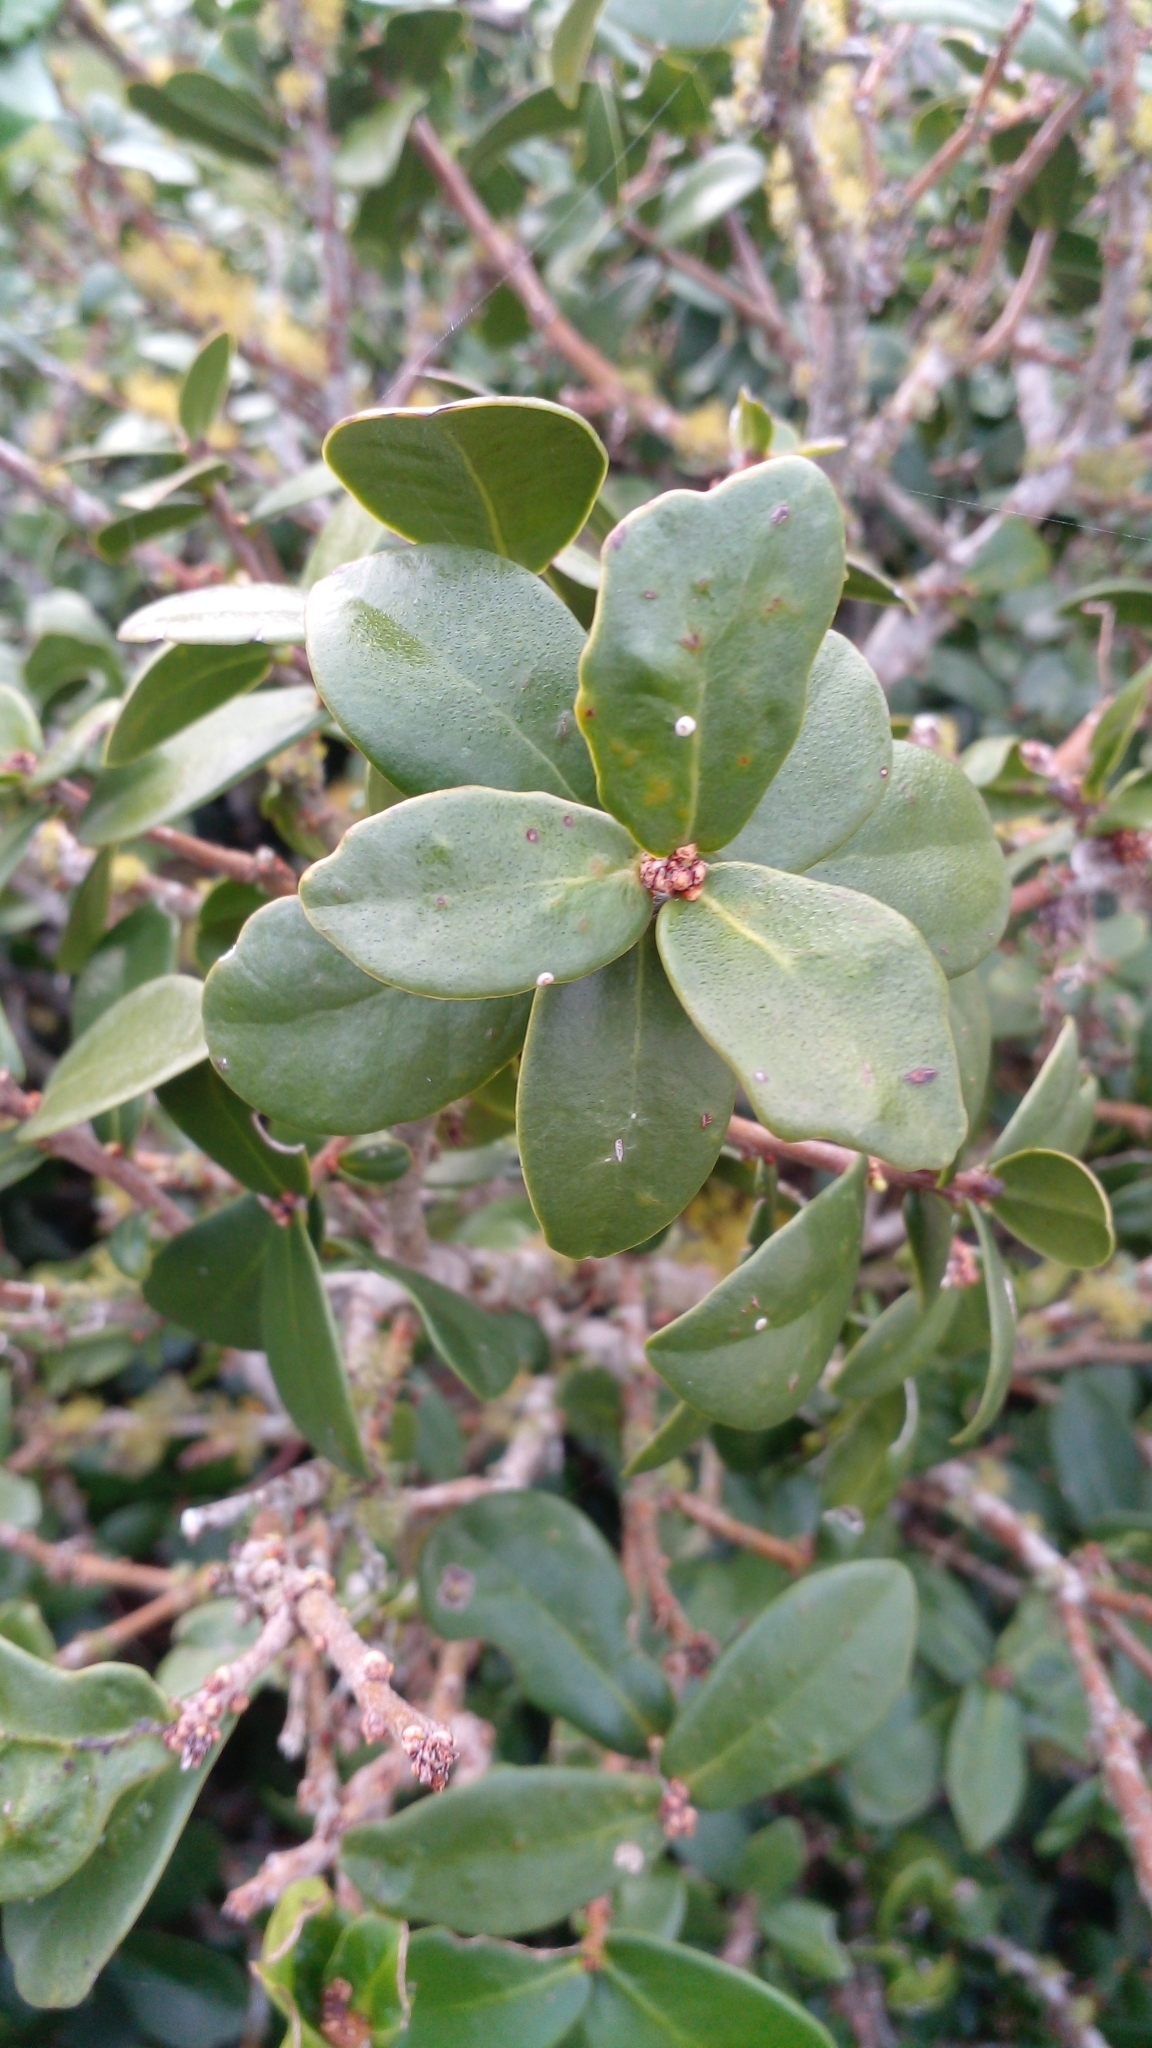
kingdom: Plantae
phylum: Tracheophyta
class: Magnoliopsida
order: Malvales
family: Thymelaeaceae
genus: Daphnopsis
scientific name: Daphnopsis racemosa
